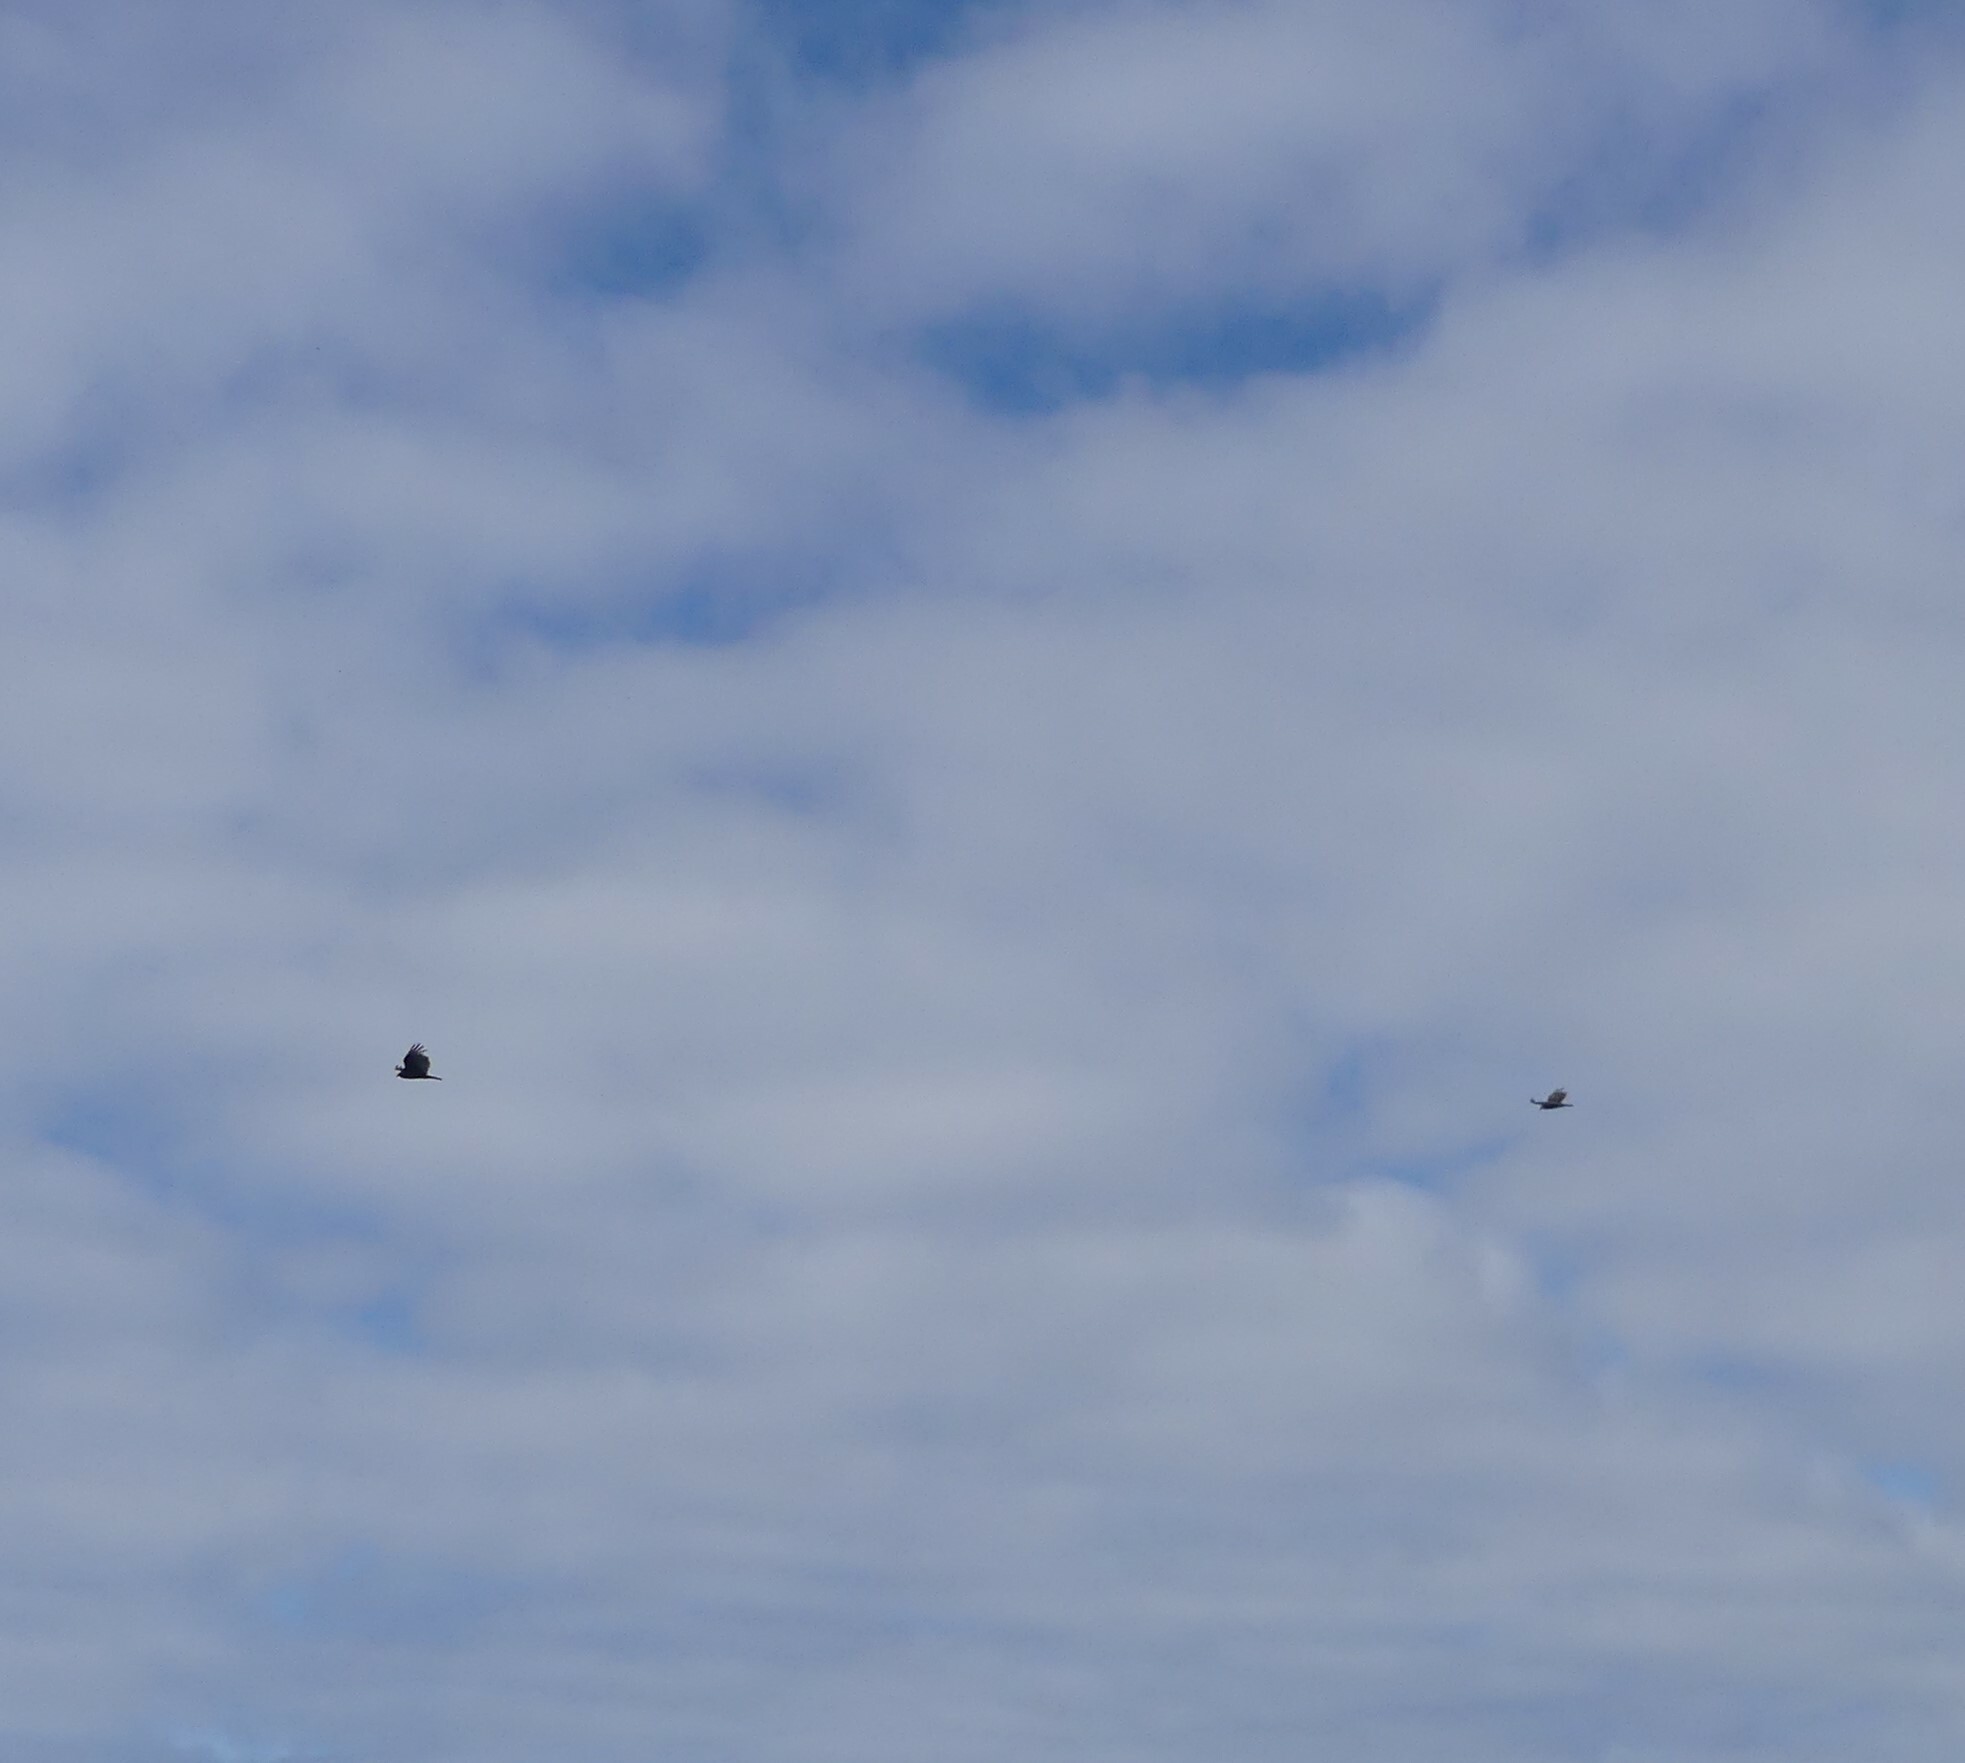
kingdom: Animalia
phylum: Chordata
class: Aves
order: Accipitriformes
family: Cathartidae
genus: Cathartes
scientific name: Cathartes aura
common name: Turkey vulture
